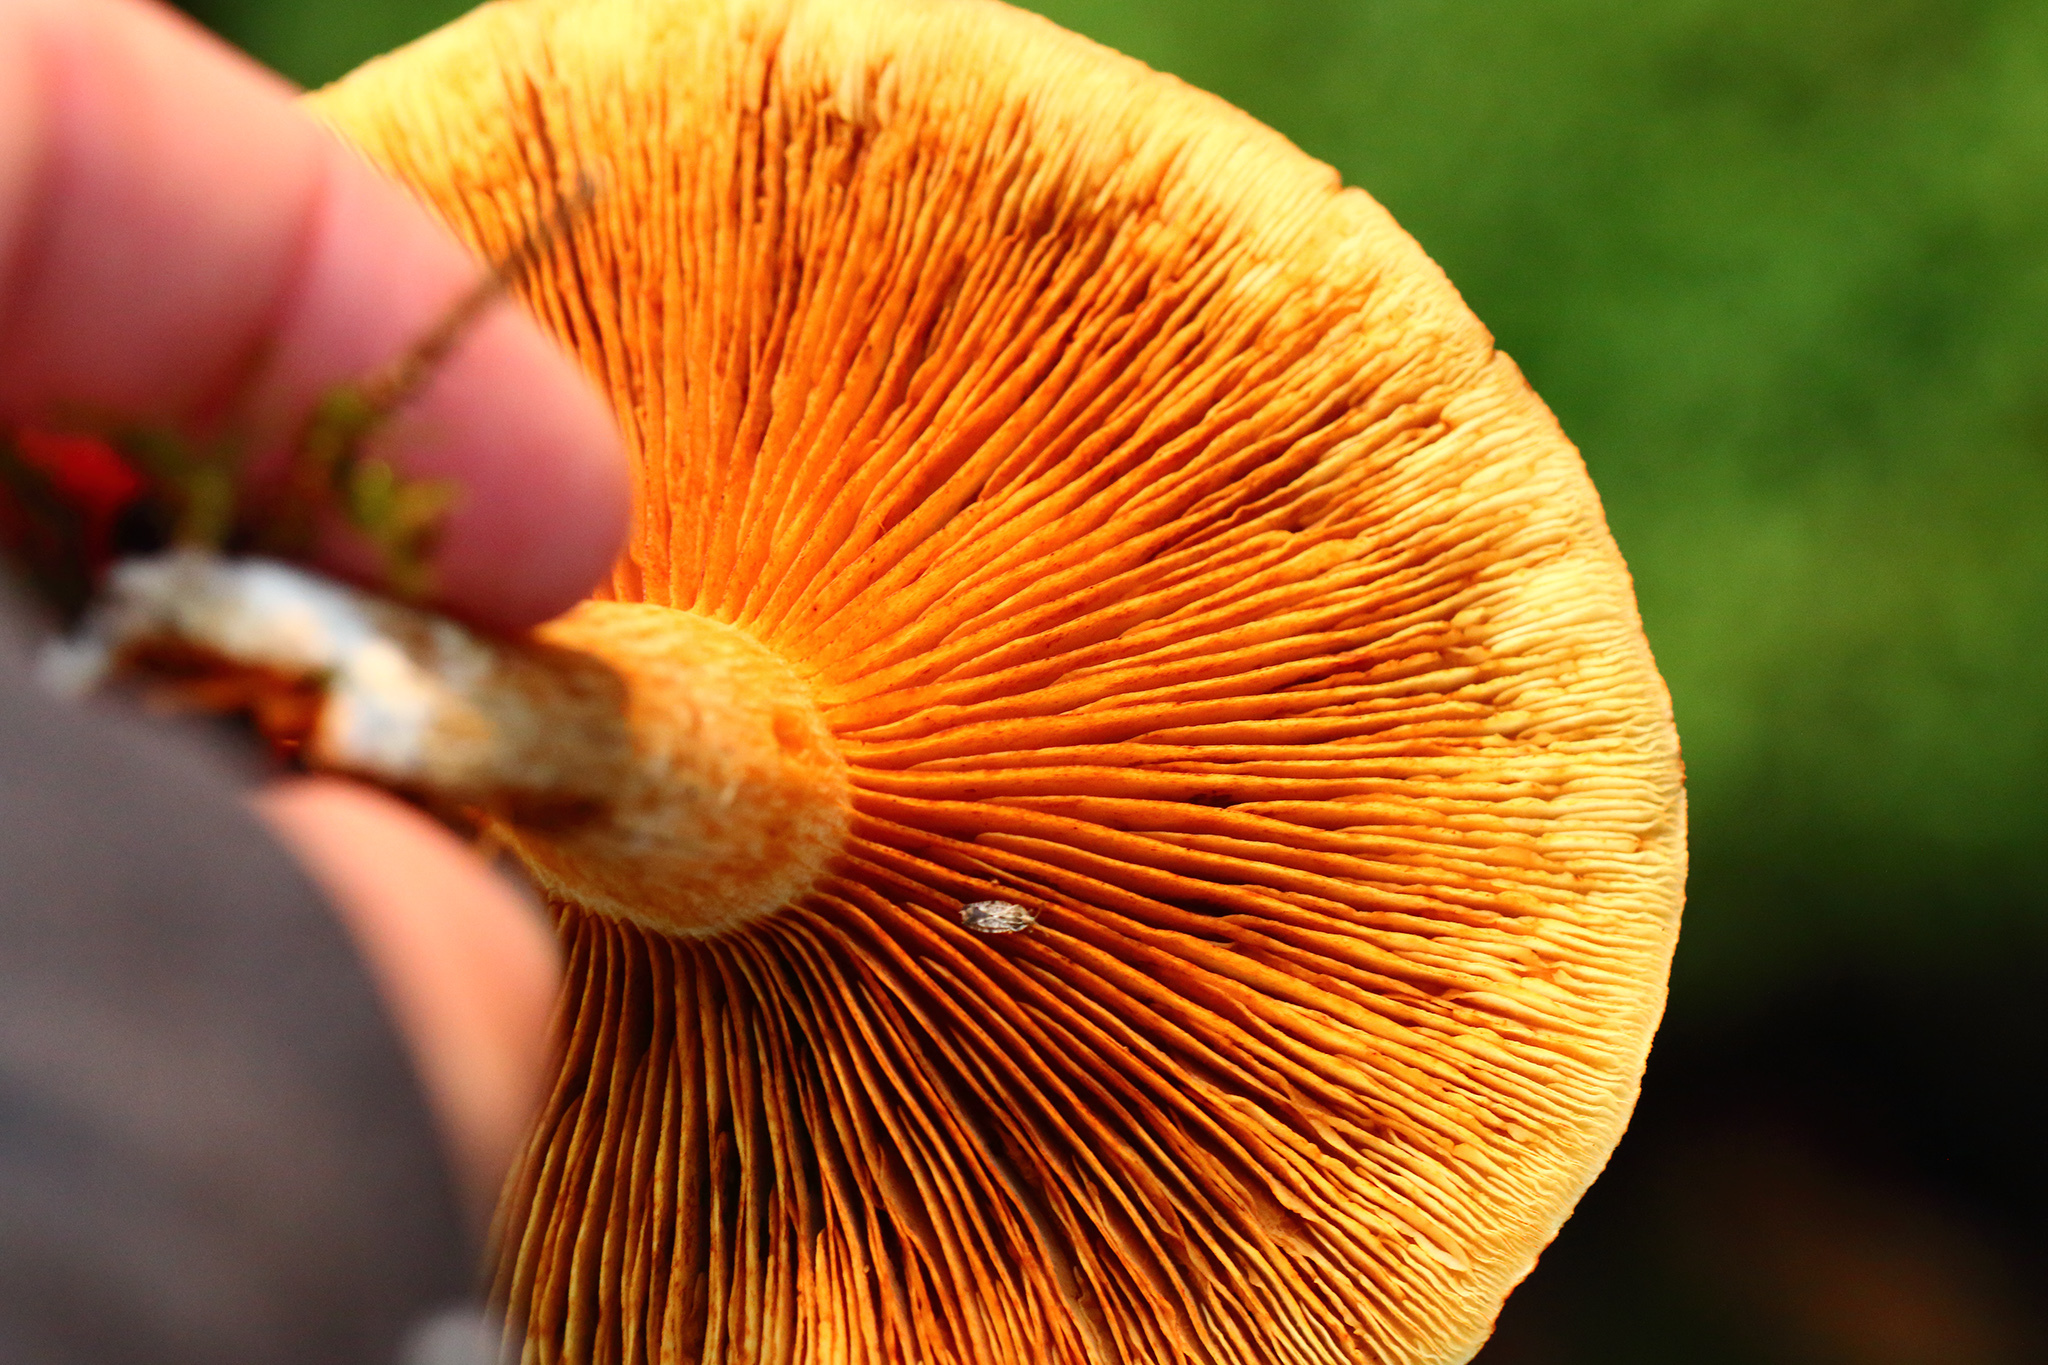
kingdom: Fungi
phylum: Basidiomycota
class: Agaricomycetes
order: Agaricales
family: Hymenogastraceae
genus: Gymnopilus
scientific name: Gymnopilus penetrans
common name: Common rustgill
